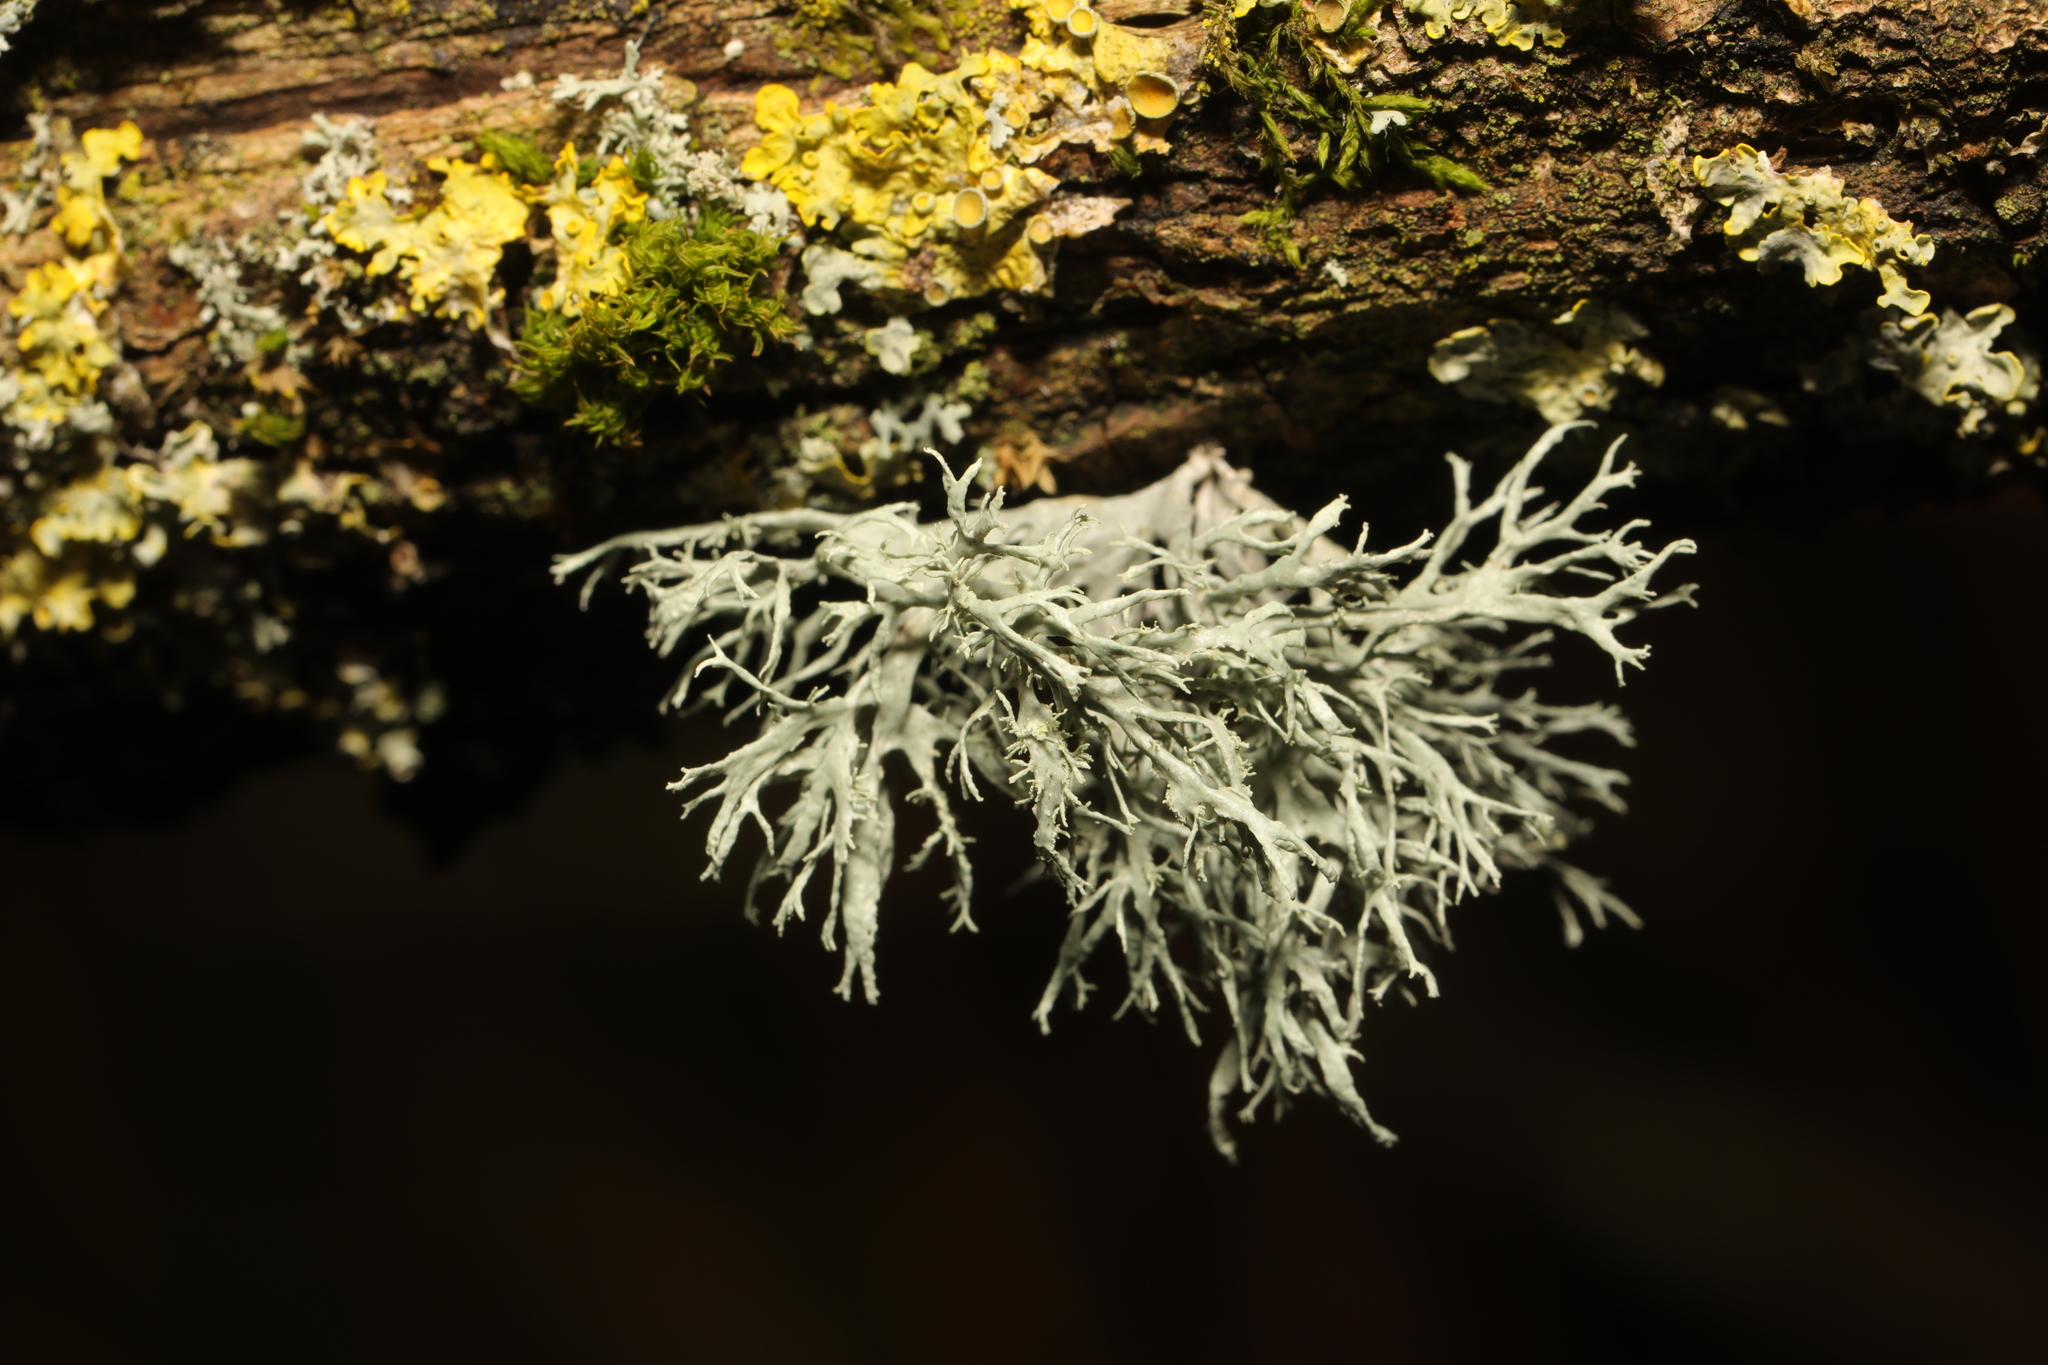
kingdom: Fungi
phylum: Ascomycota
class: Lecanoromycetes
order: Lecanorales
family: Ramalinaceae
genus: Ramalina
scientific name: Ramalina farinacea
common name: Farinose cartilage lichen
